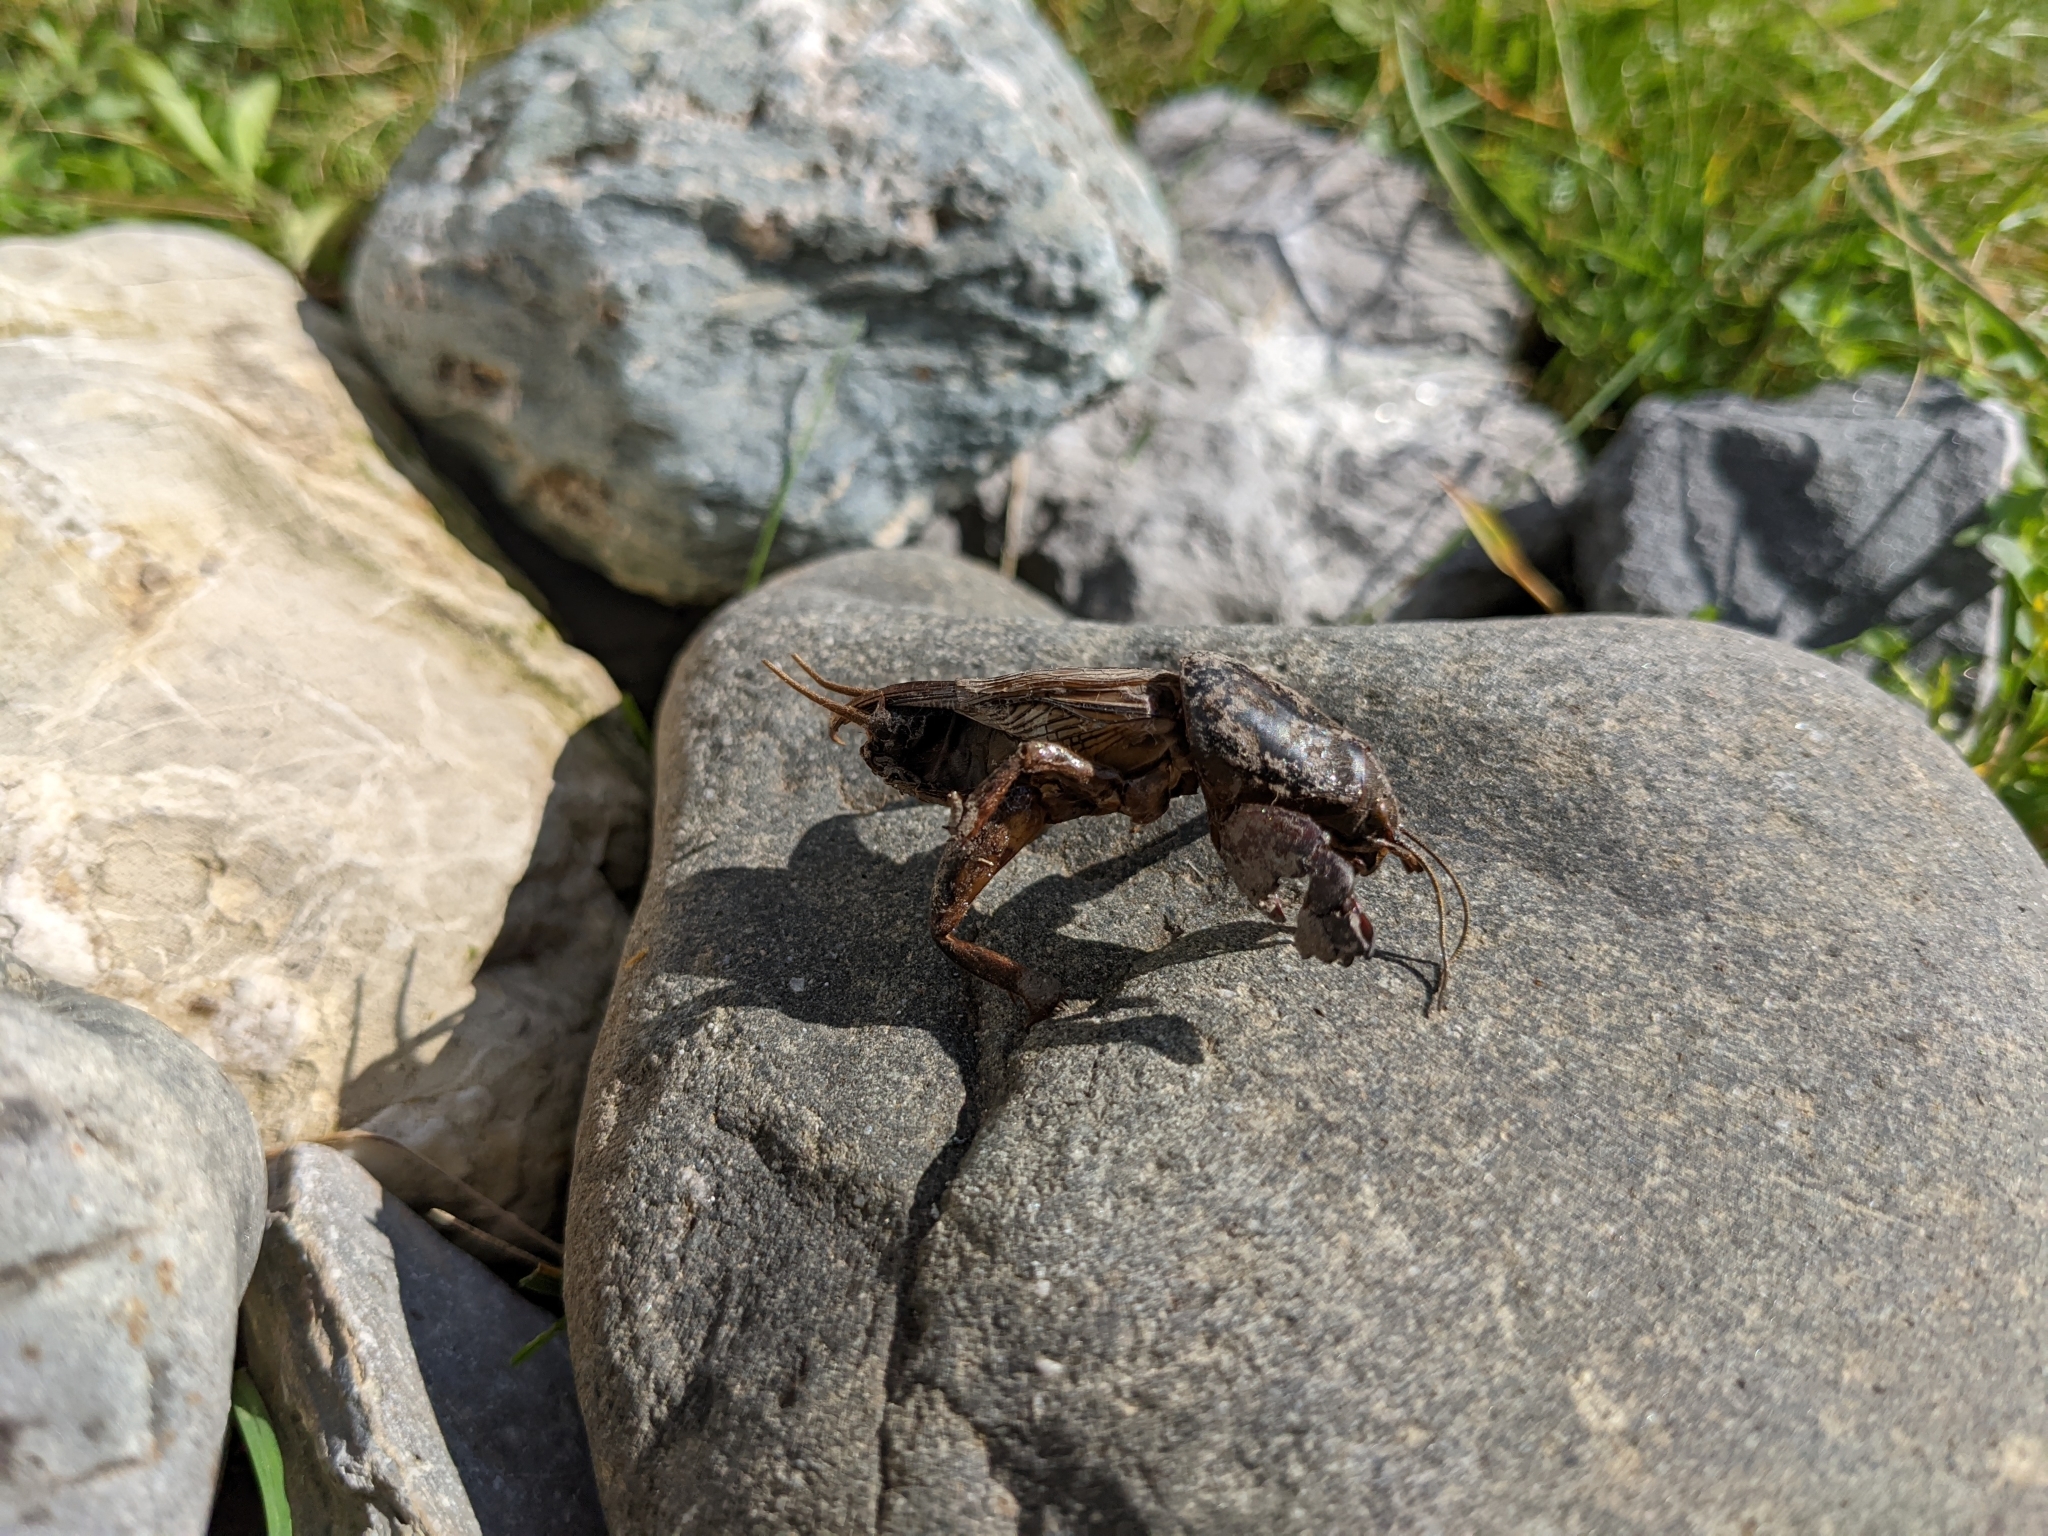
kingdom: Animalia
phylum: Arthropoda
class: Insecta
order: Orthoptera
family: Gryllotalpidae
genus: Gryllotalpa
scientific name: Gryllotalpa gryllotalpa
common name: European mole cricket
